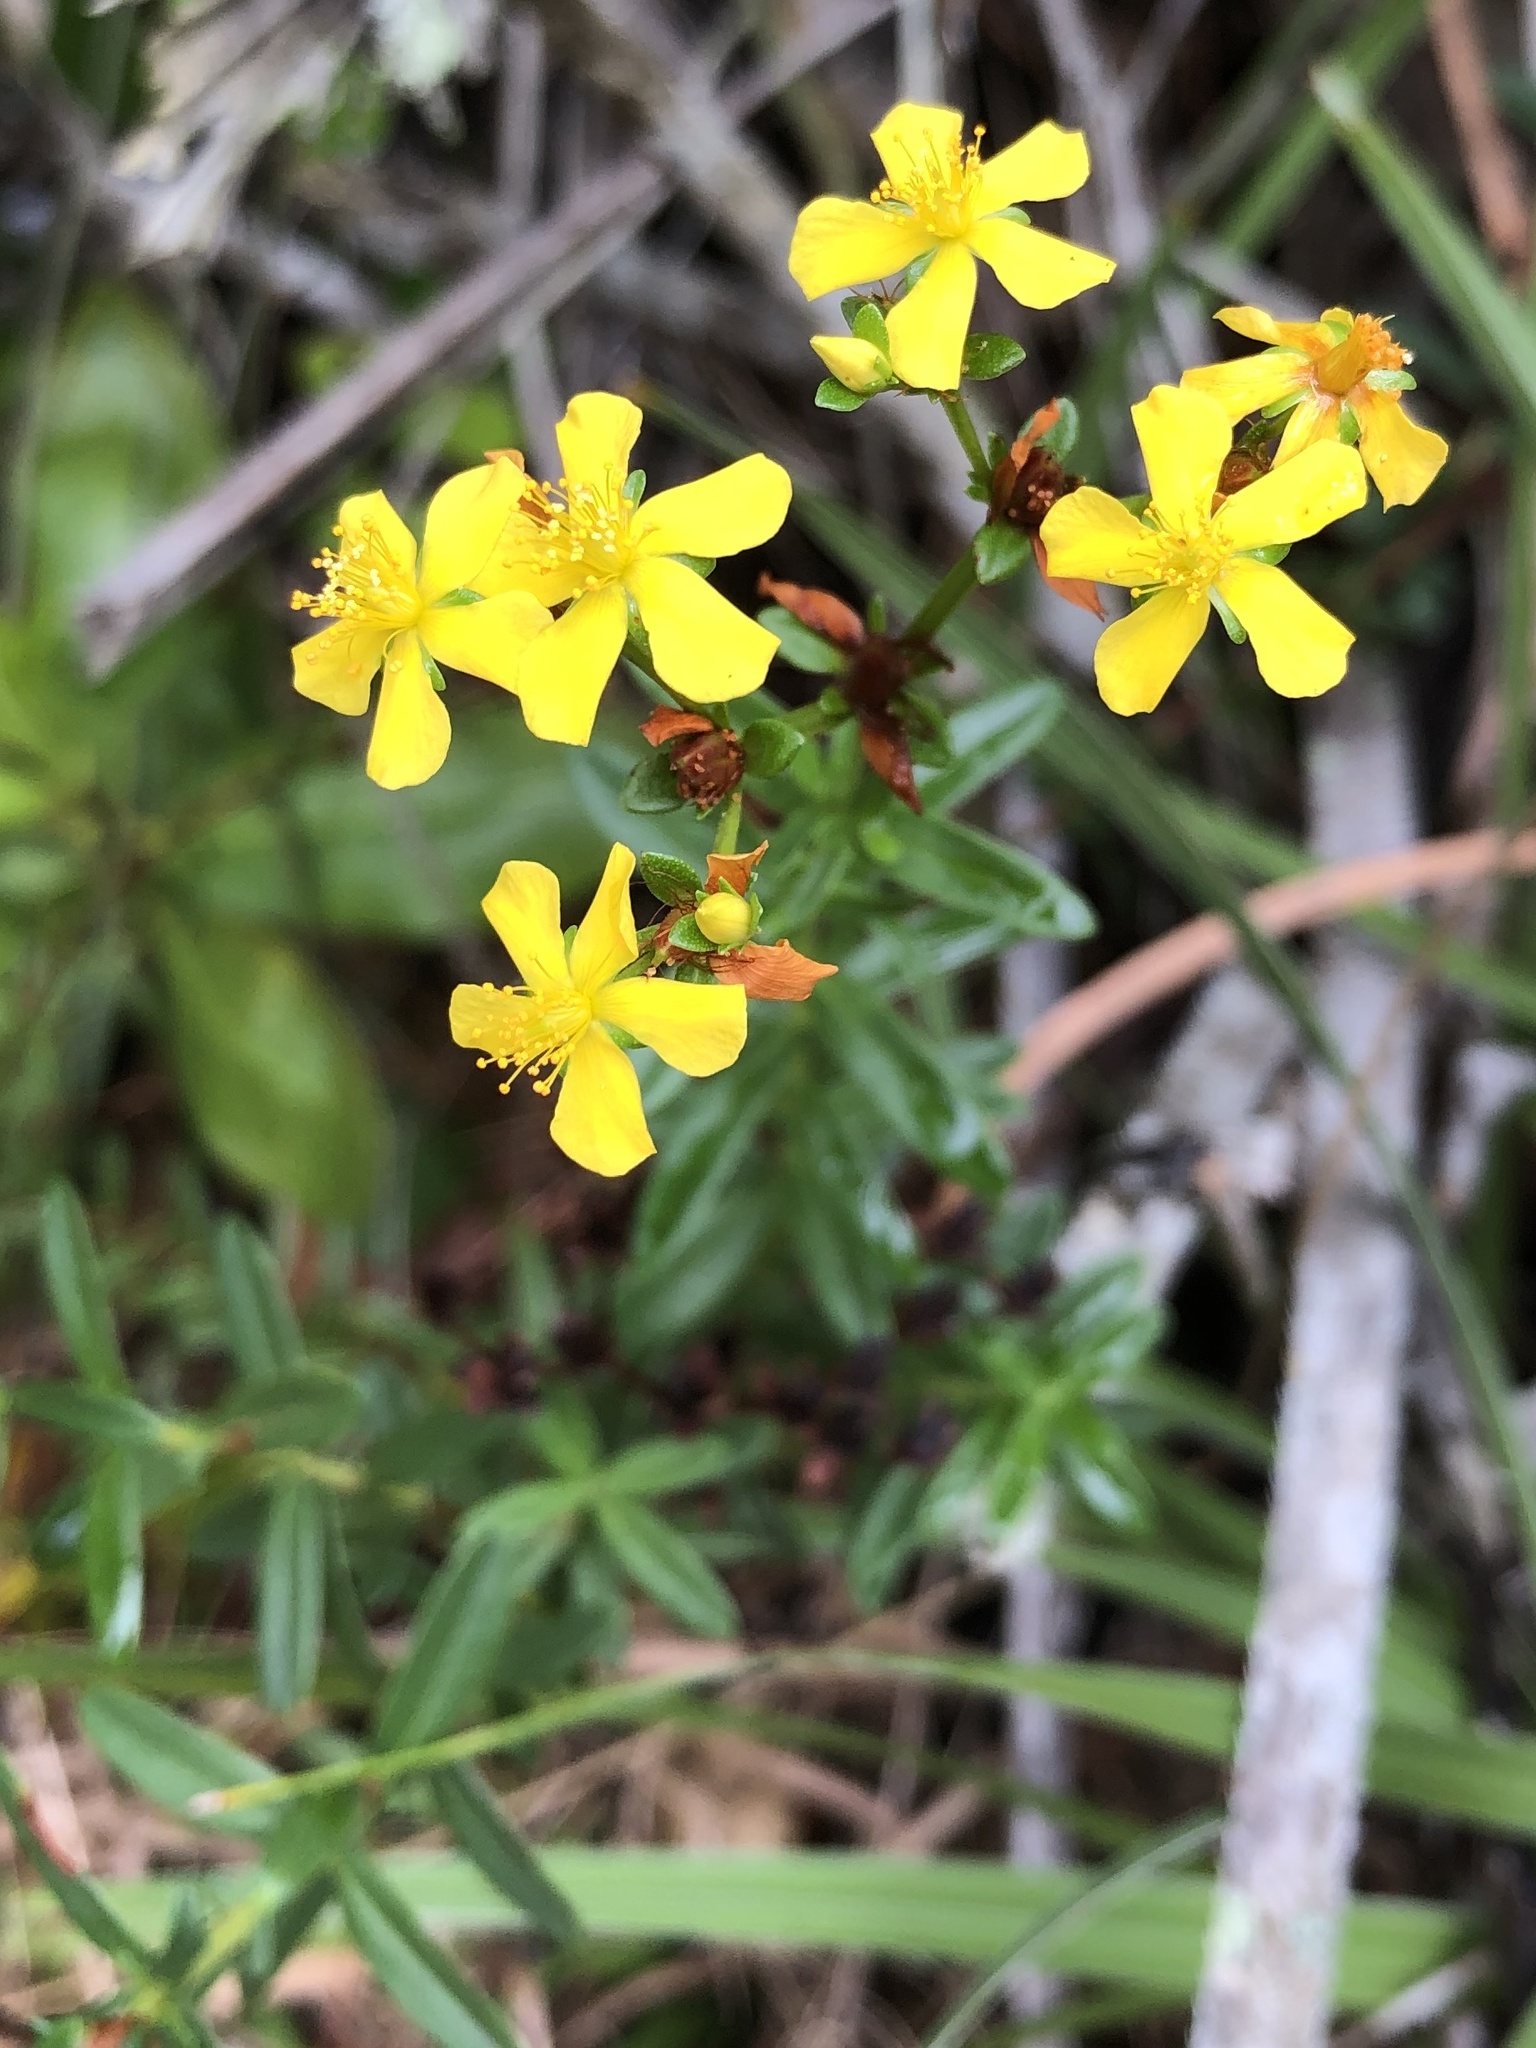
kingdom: Plantae
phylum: Tracheophyta
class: Magnoliopsida
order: Malpighiales
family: Hypericaceae
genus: Hypericum
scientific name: Hypericum cistifolium
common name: Round-pod st. john's-wort
